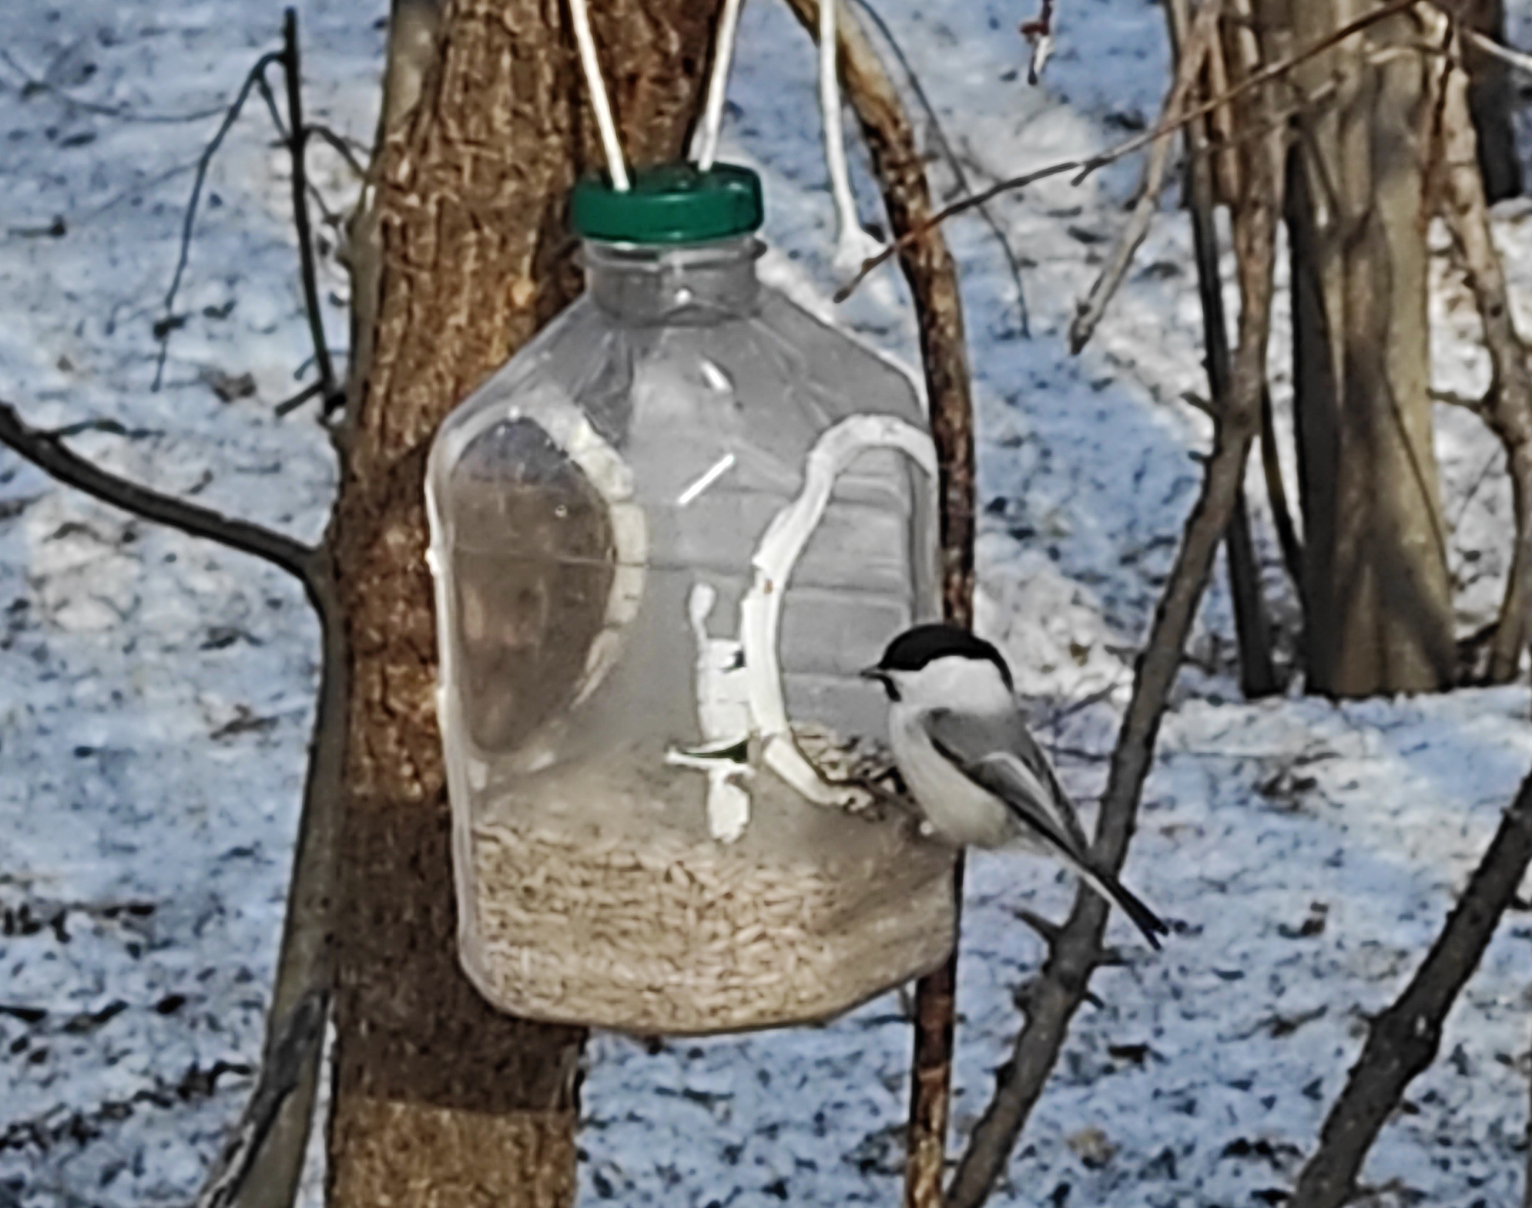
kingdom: Animalia
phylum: Chordata
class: Aves
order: Passeriformes
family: Paridae
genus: Poecile
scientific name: Poecile montanus
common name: Willow tit
